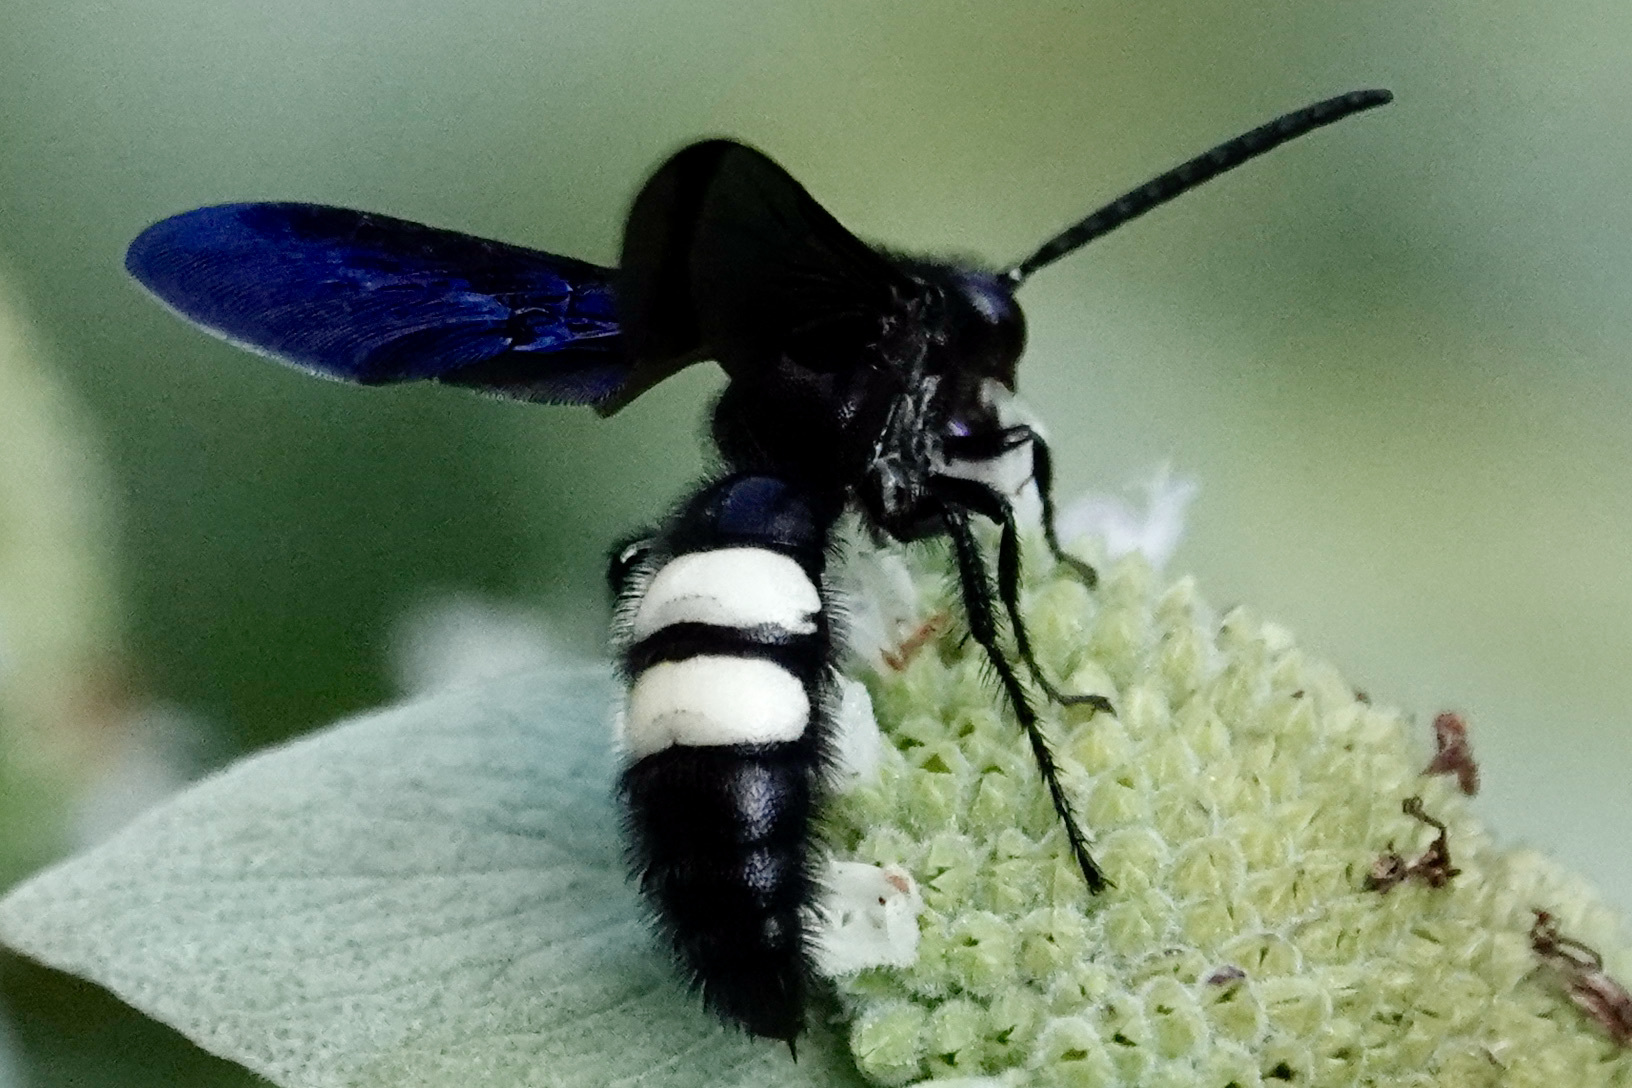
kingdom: Animalia
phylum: Arthropoda
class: Insecta
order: Hymenoptera
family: Scoliidae
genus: Scolia
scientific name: Scolia bicincta
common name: Double-banded scoliid wasp
